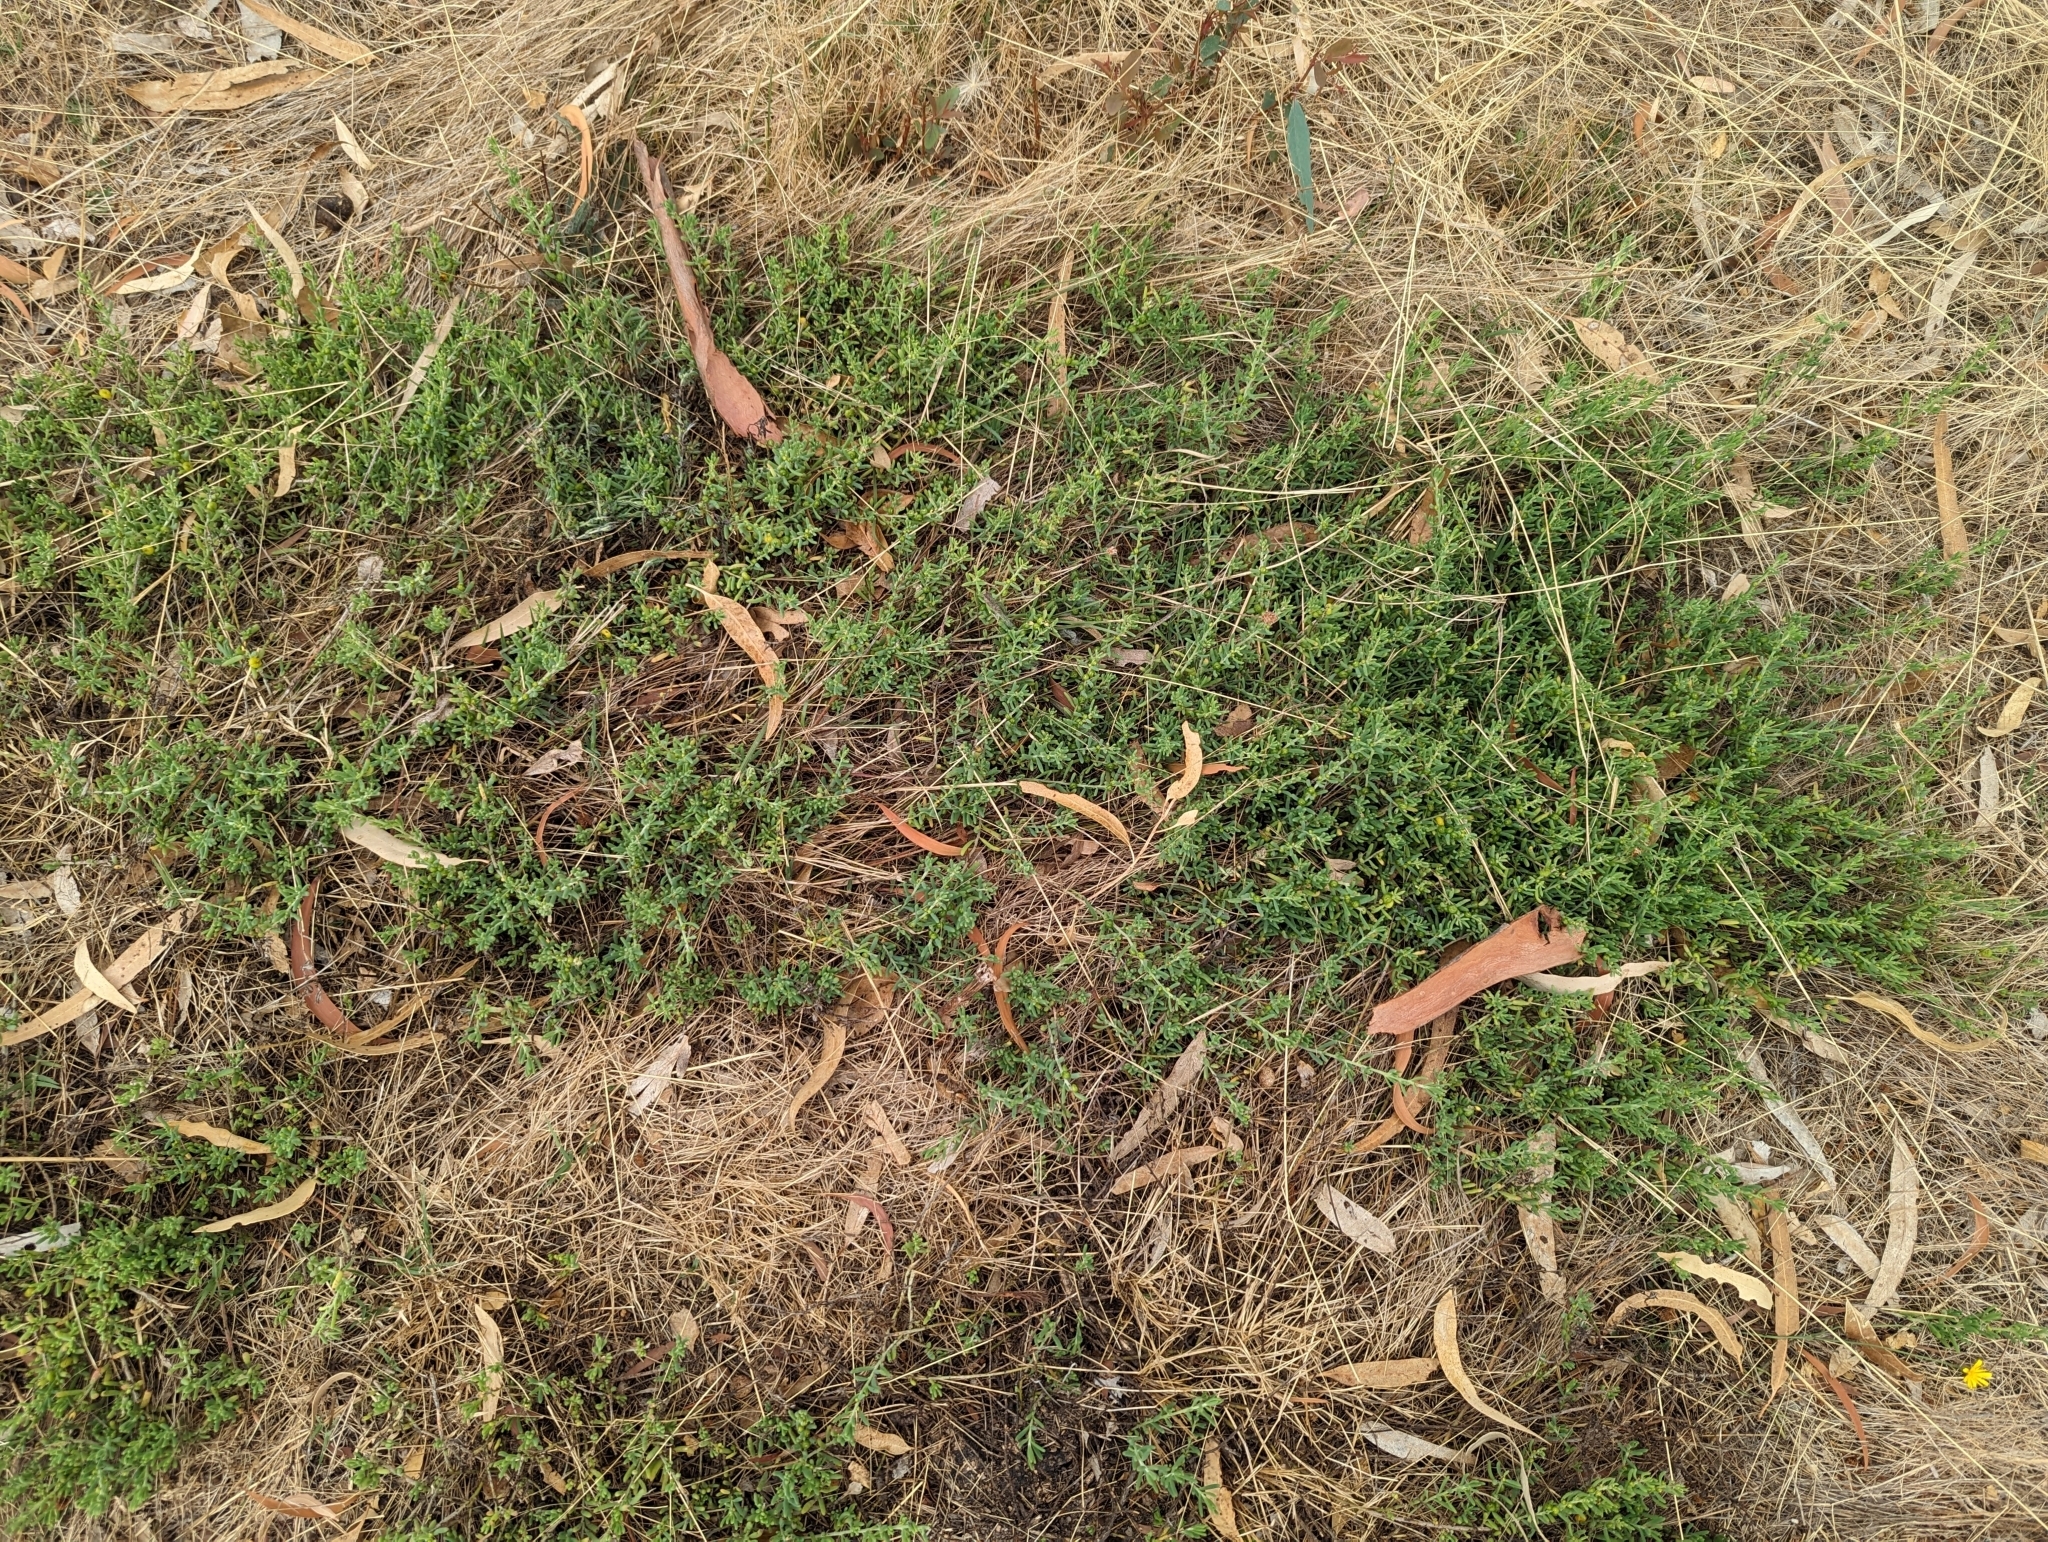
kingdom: Plantae
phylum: Tracheophyta
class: Magnoliopsida
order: Caryophyllales
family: Amaranthaceae
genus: Enchylaena
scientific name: Enchylaena tomentosa
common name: Ruby saltbush
